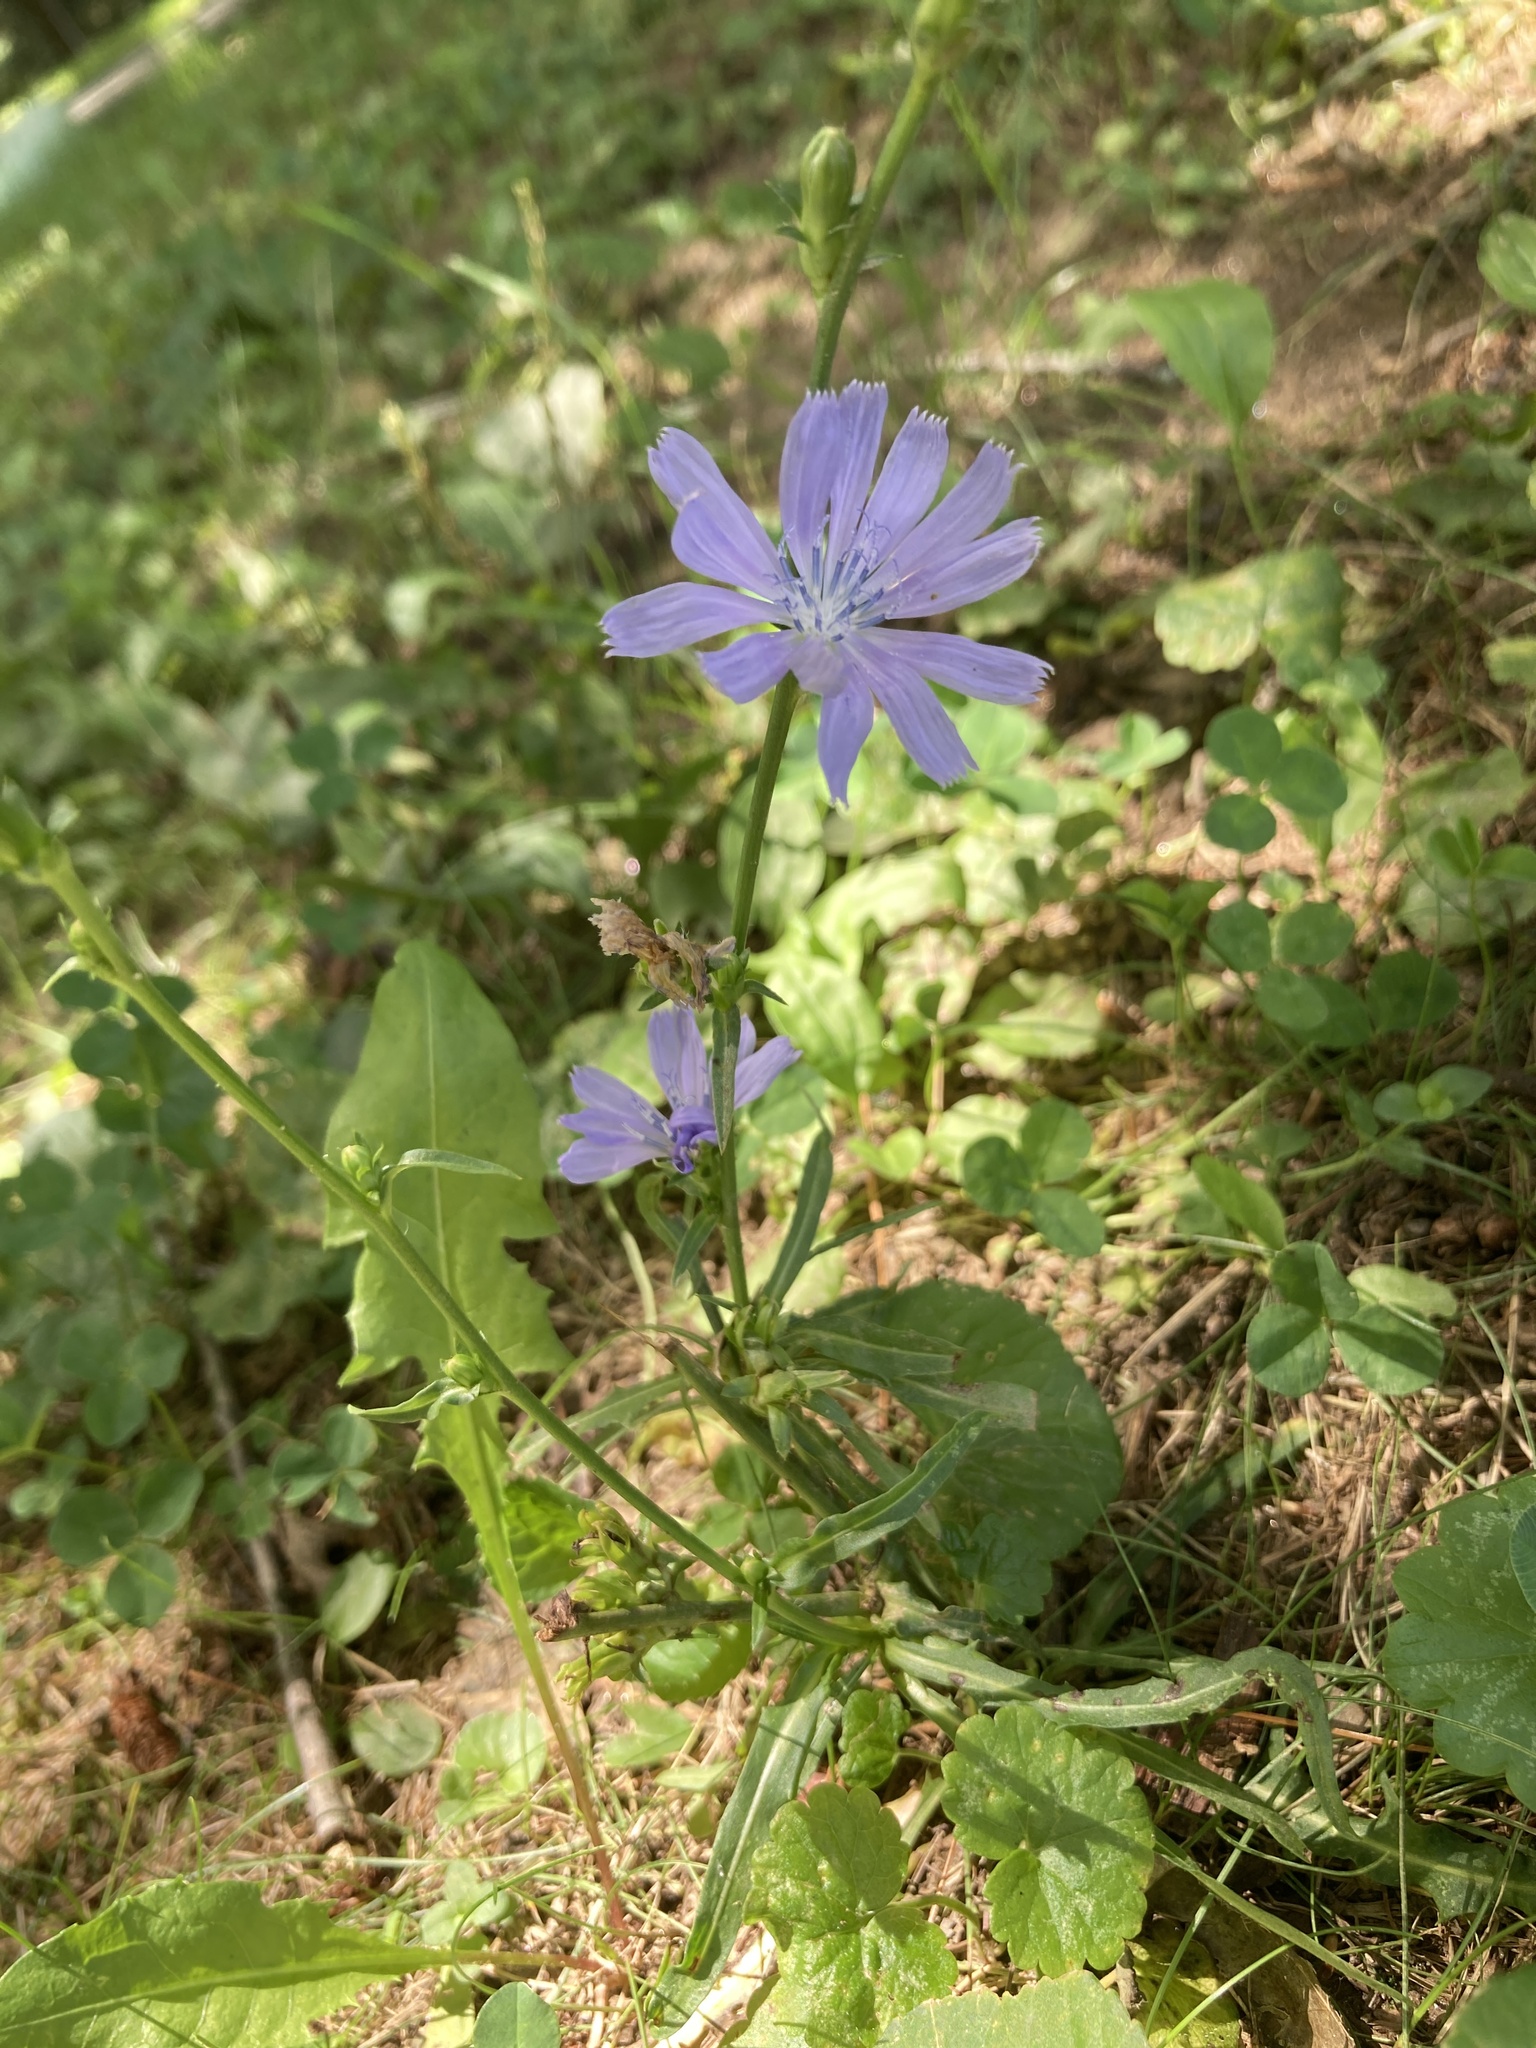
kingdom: Plantae
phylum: Tracheophyta
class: Magnoliopsida
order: Asterales
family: Asteraceae
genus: Cichorium
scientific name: Cichorium intybus
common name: Chicory
